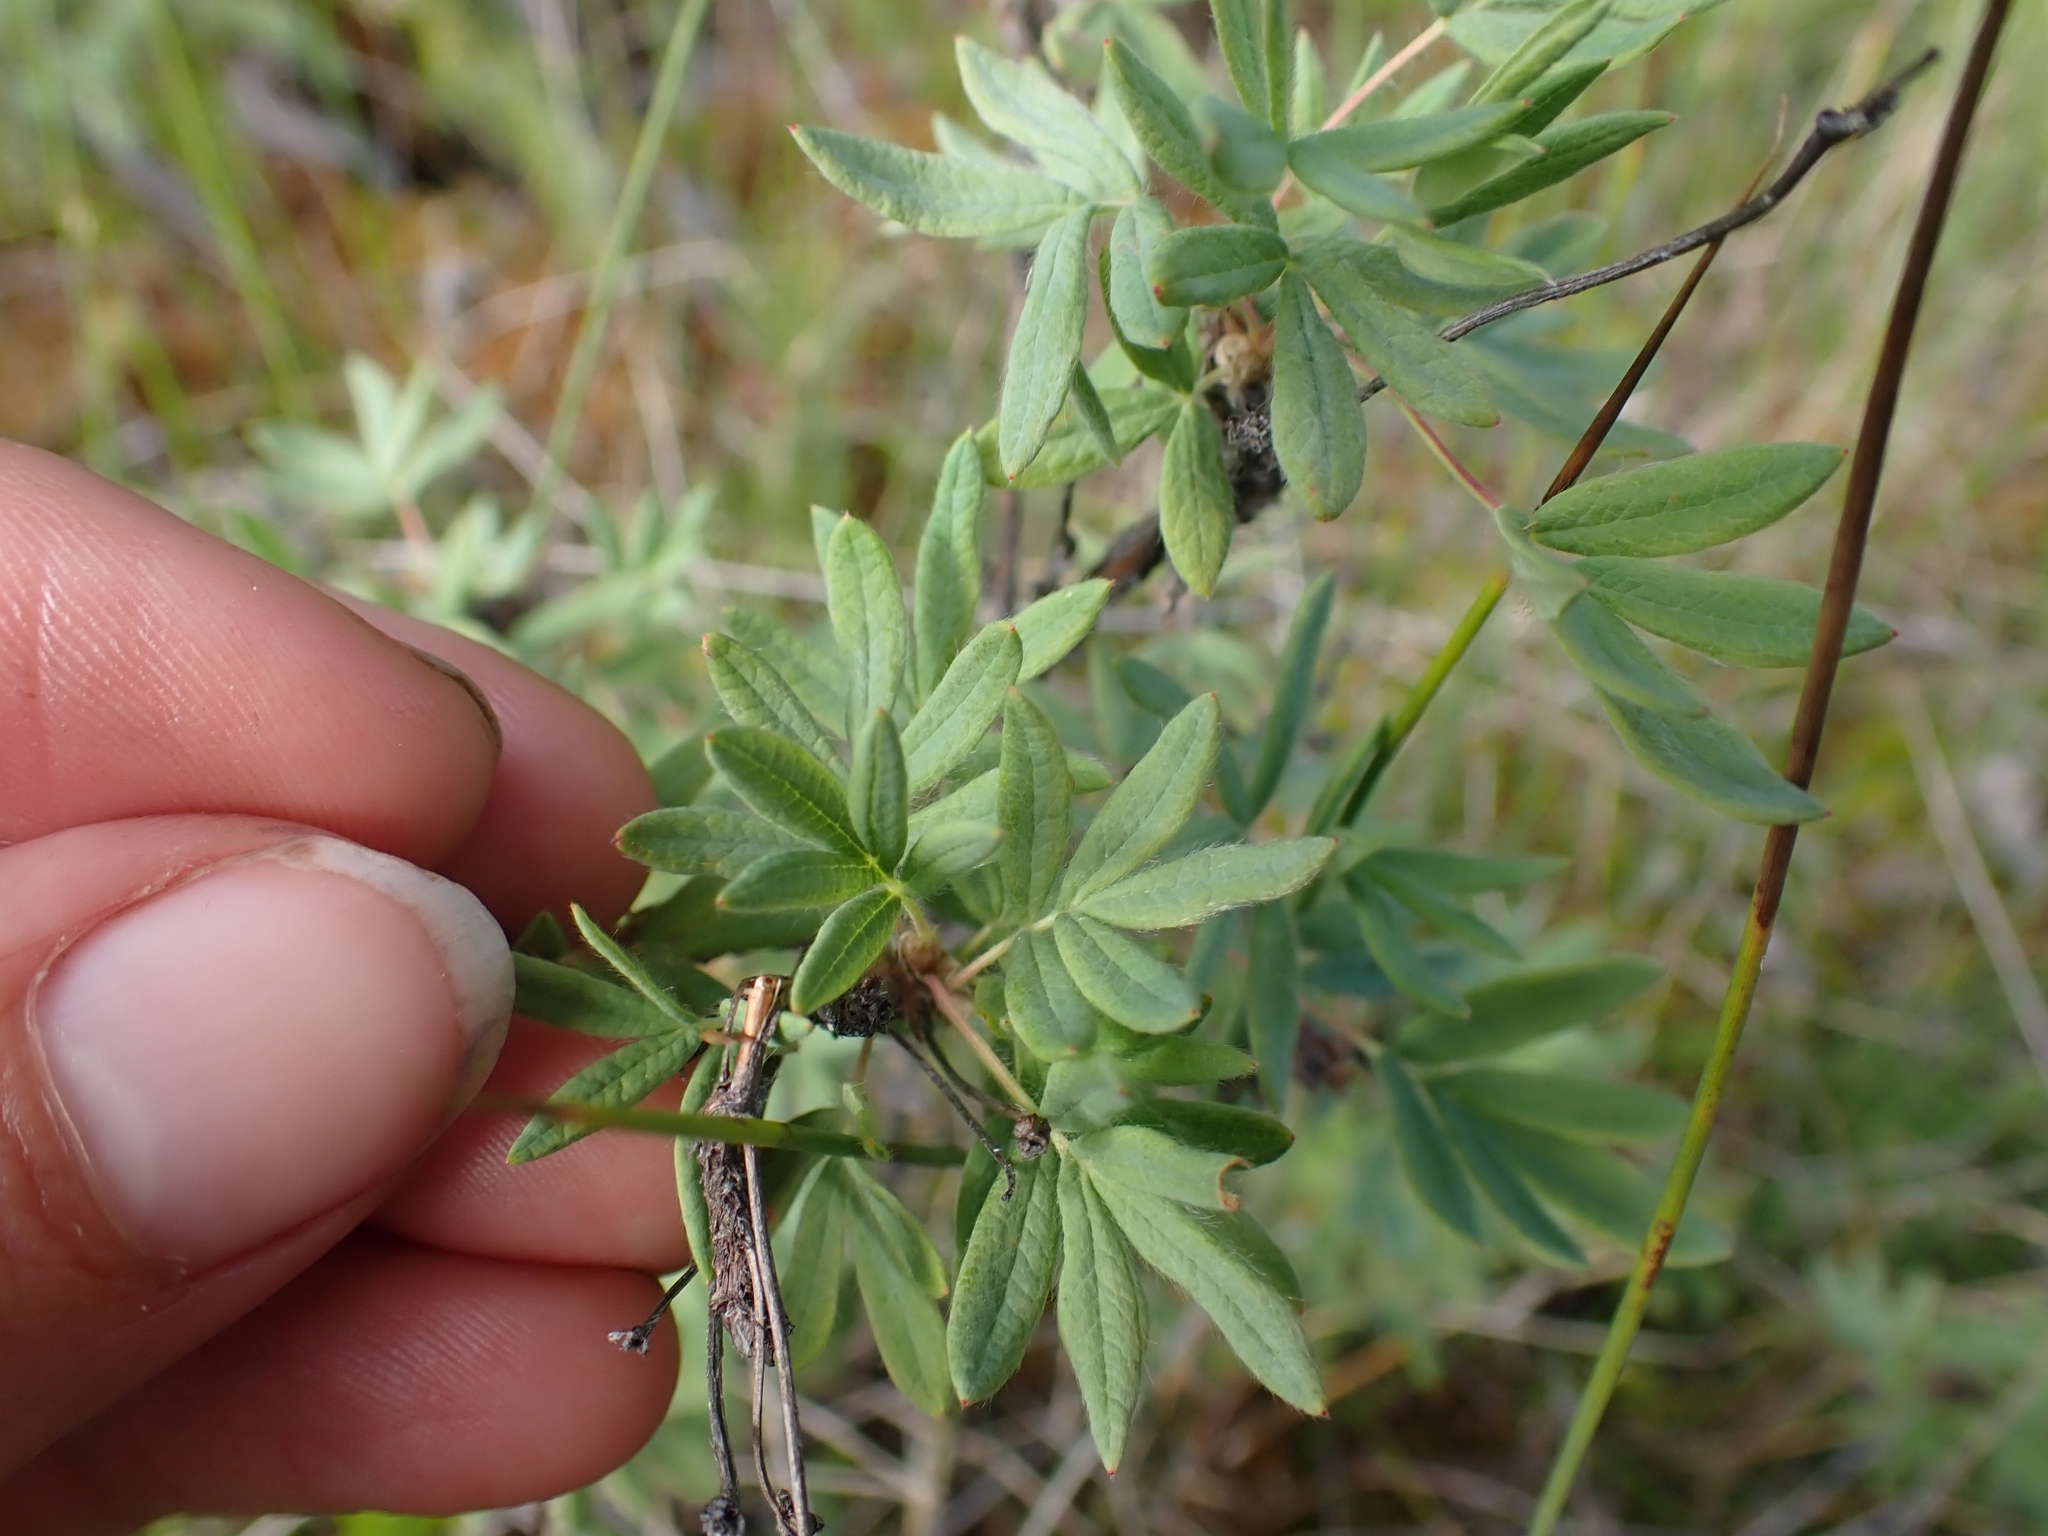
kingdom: Plantae
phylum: Tracheophyta
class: Magnoliopsida
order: Rosales
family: Rosaceae
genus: Dasiphora
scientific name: Dasiphora fruticosa
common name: Shrubby cinquefoil
